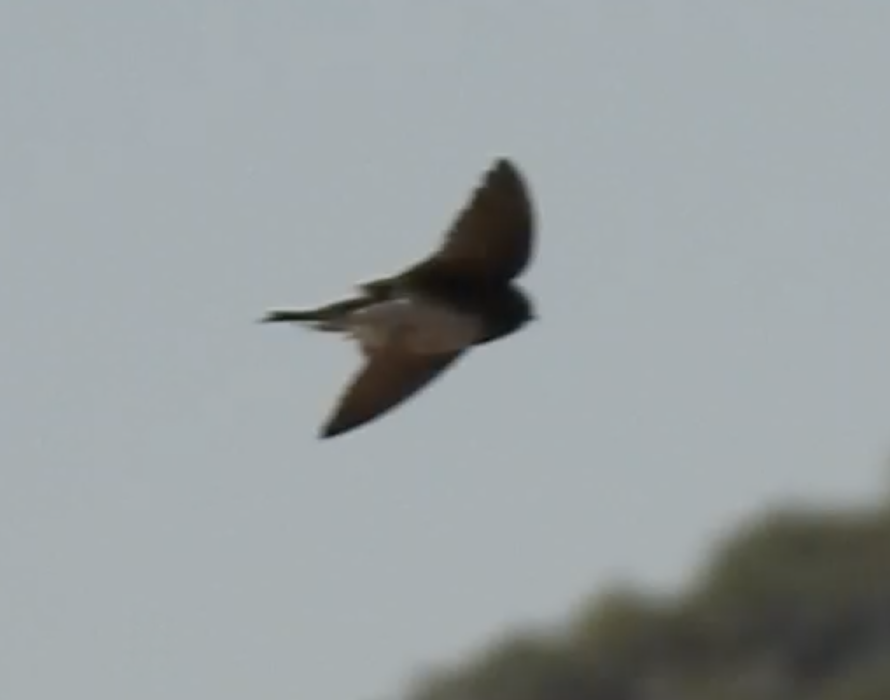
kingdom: Animalia
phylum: Chordata
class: Aves
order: Passeriformes
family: Hirundinidae
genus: Riparia
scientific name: Riparia paludicola
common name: Brown-throated martin
